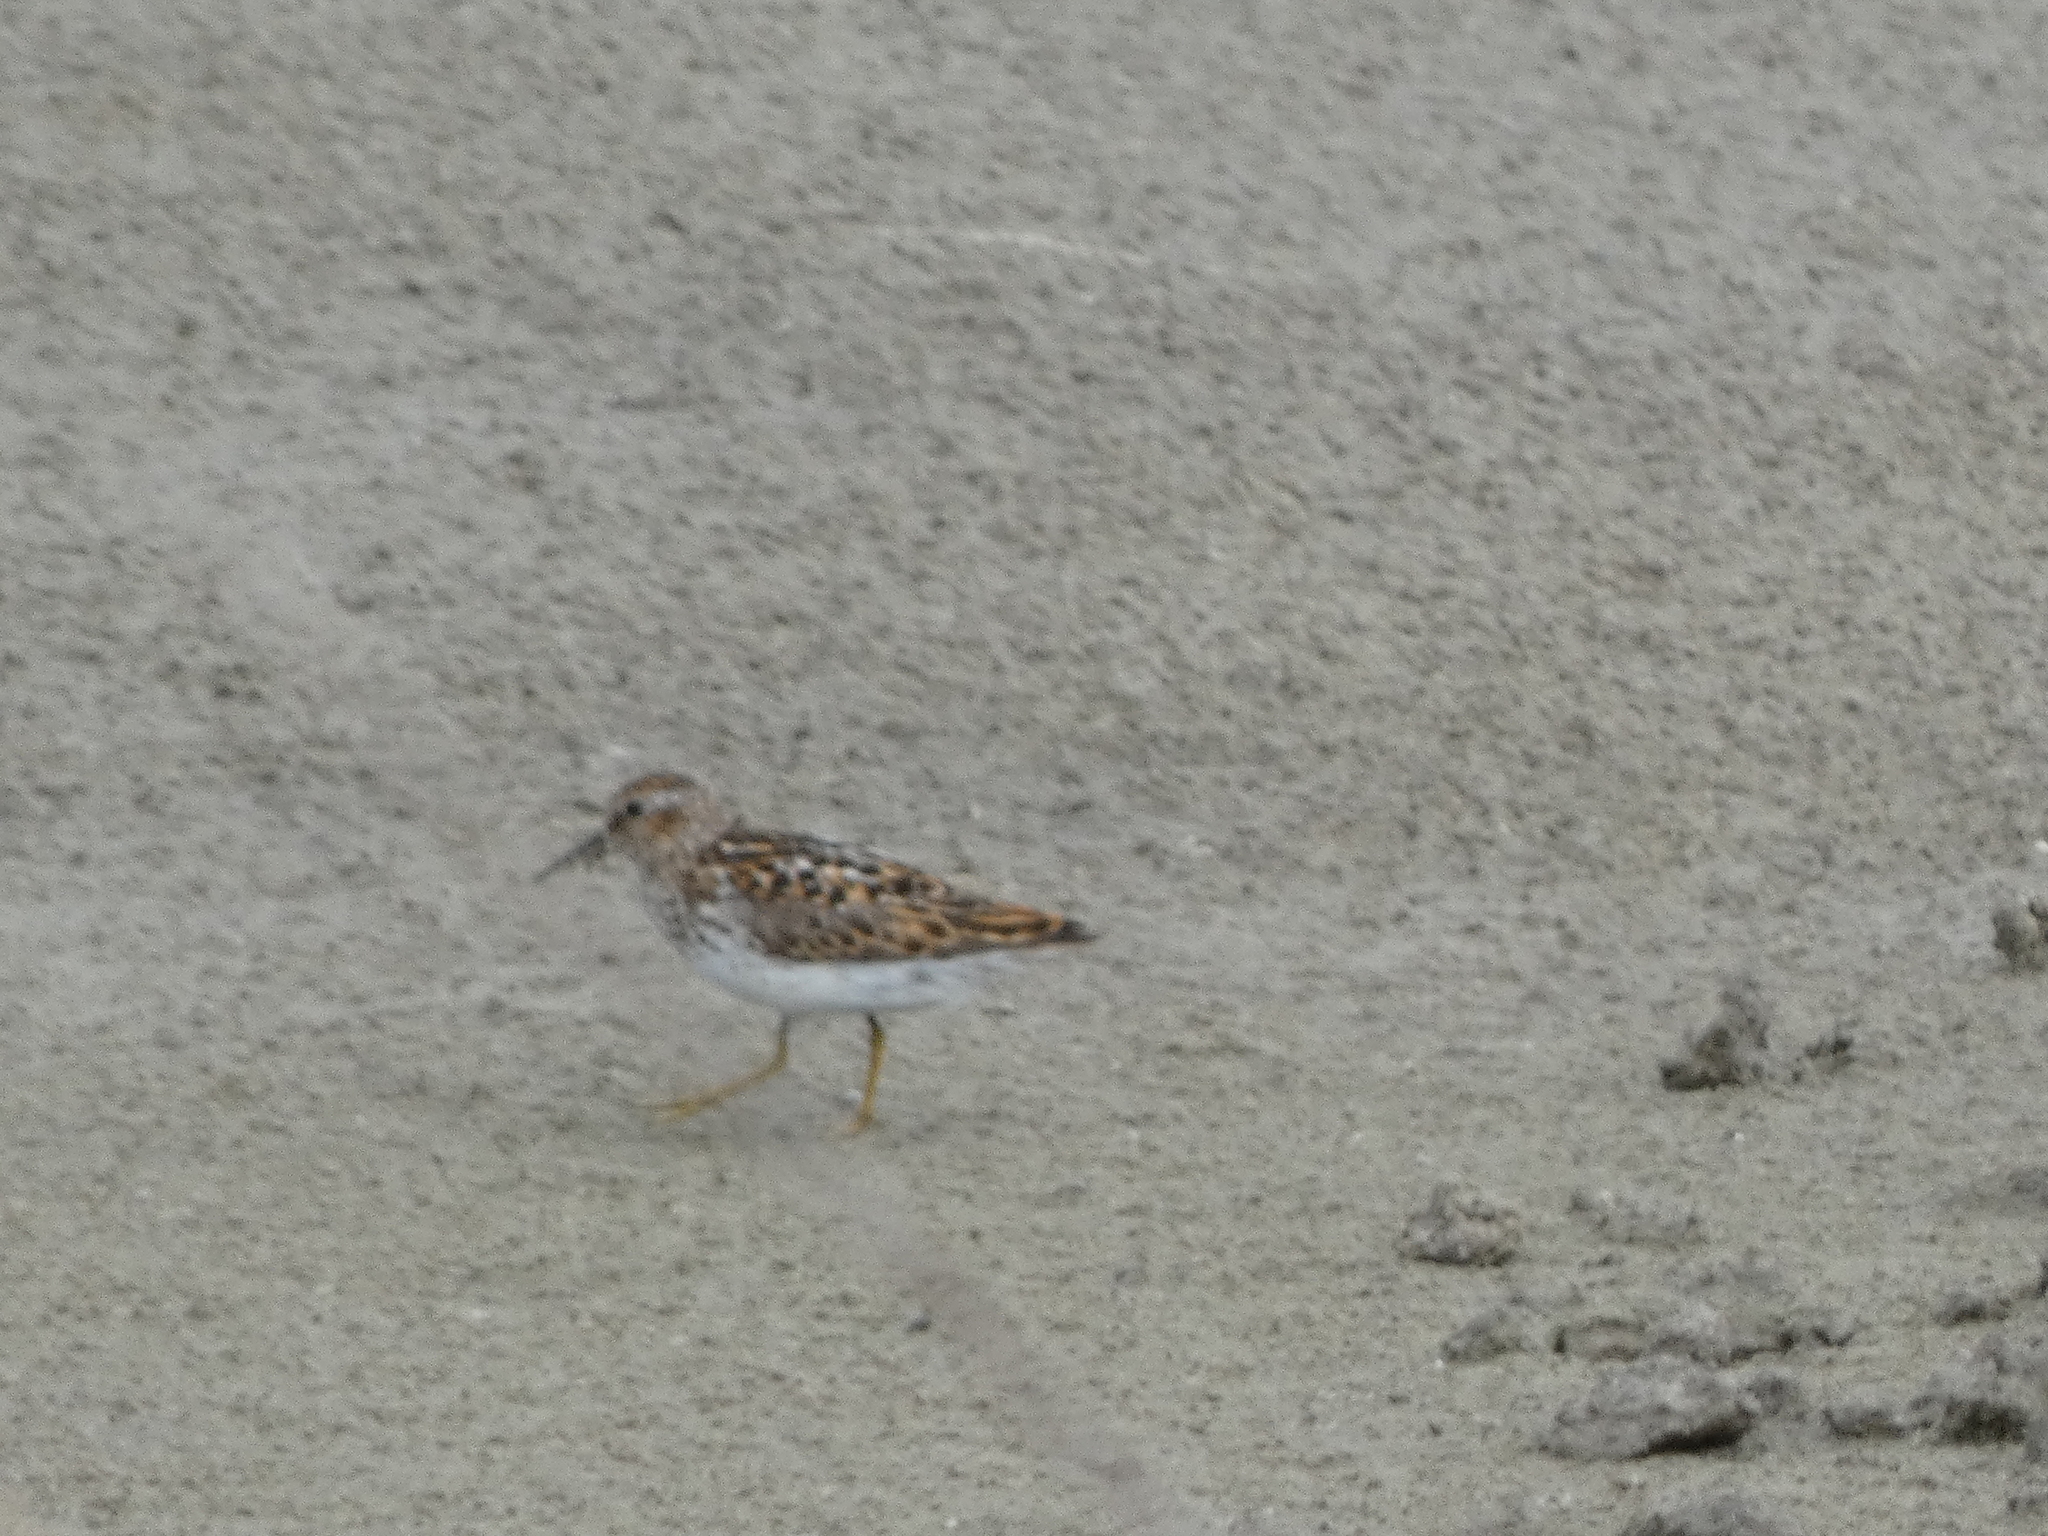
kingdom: Animalia
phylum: Chordata
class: Aves
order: Charadriiformes
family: Scolopacidae
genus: Calidris
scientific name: Calidris minutilla
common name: Least sandpiper
